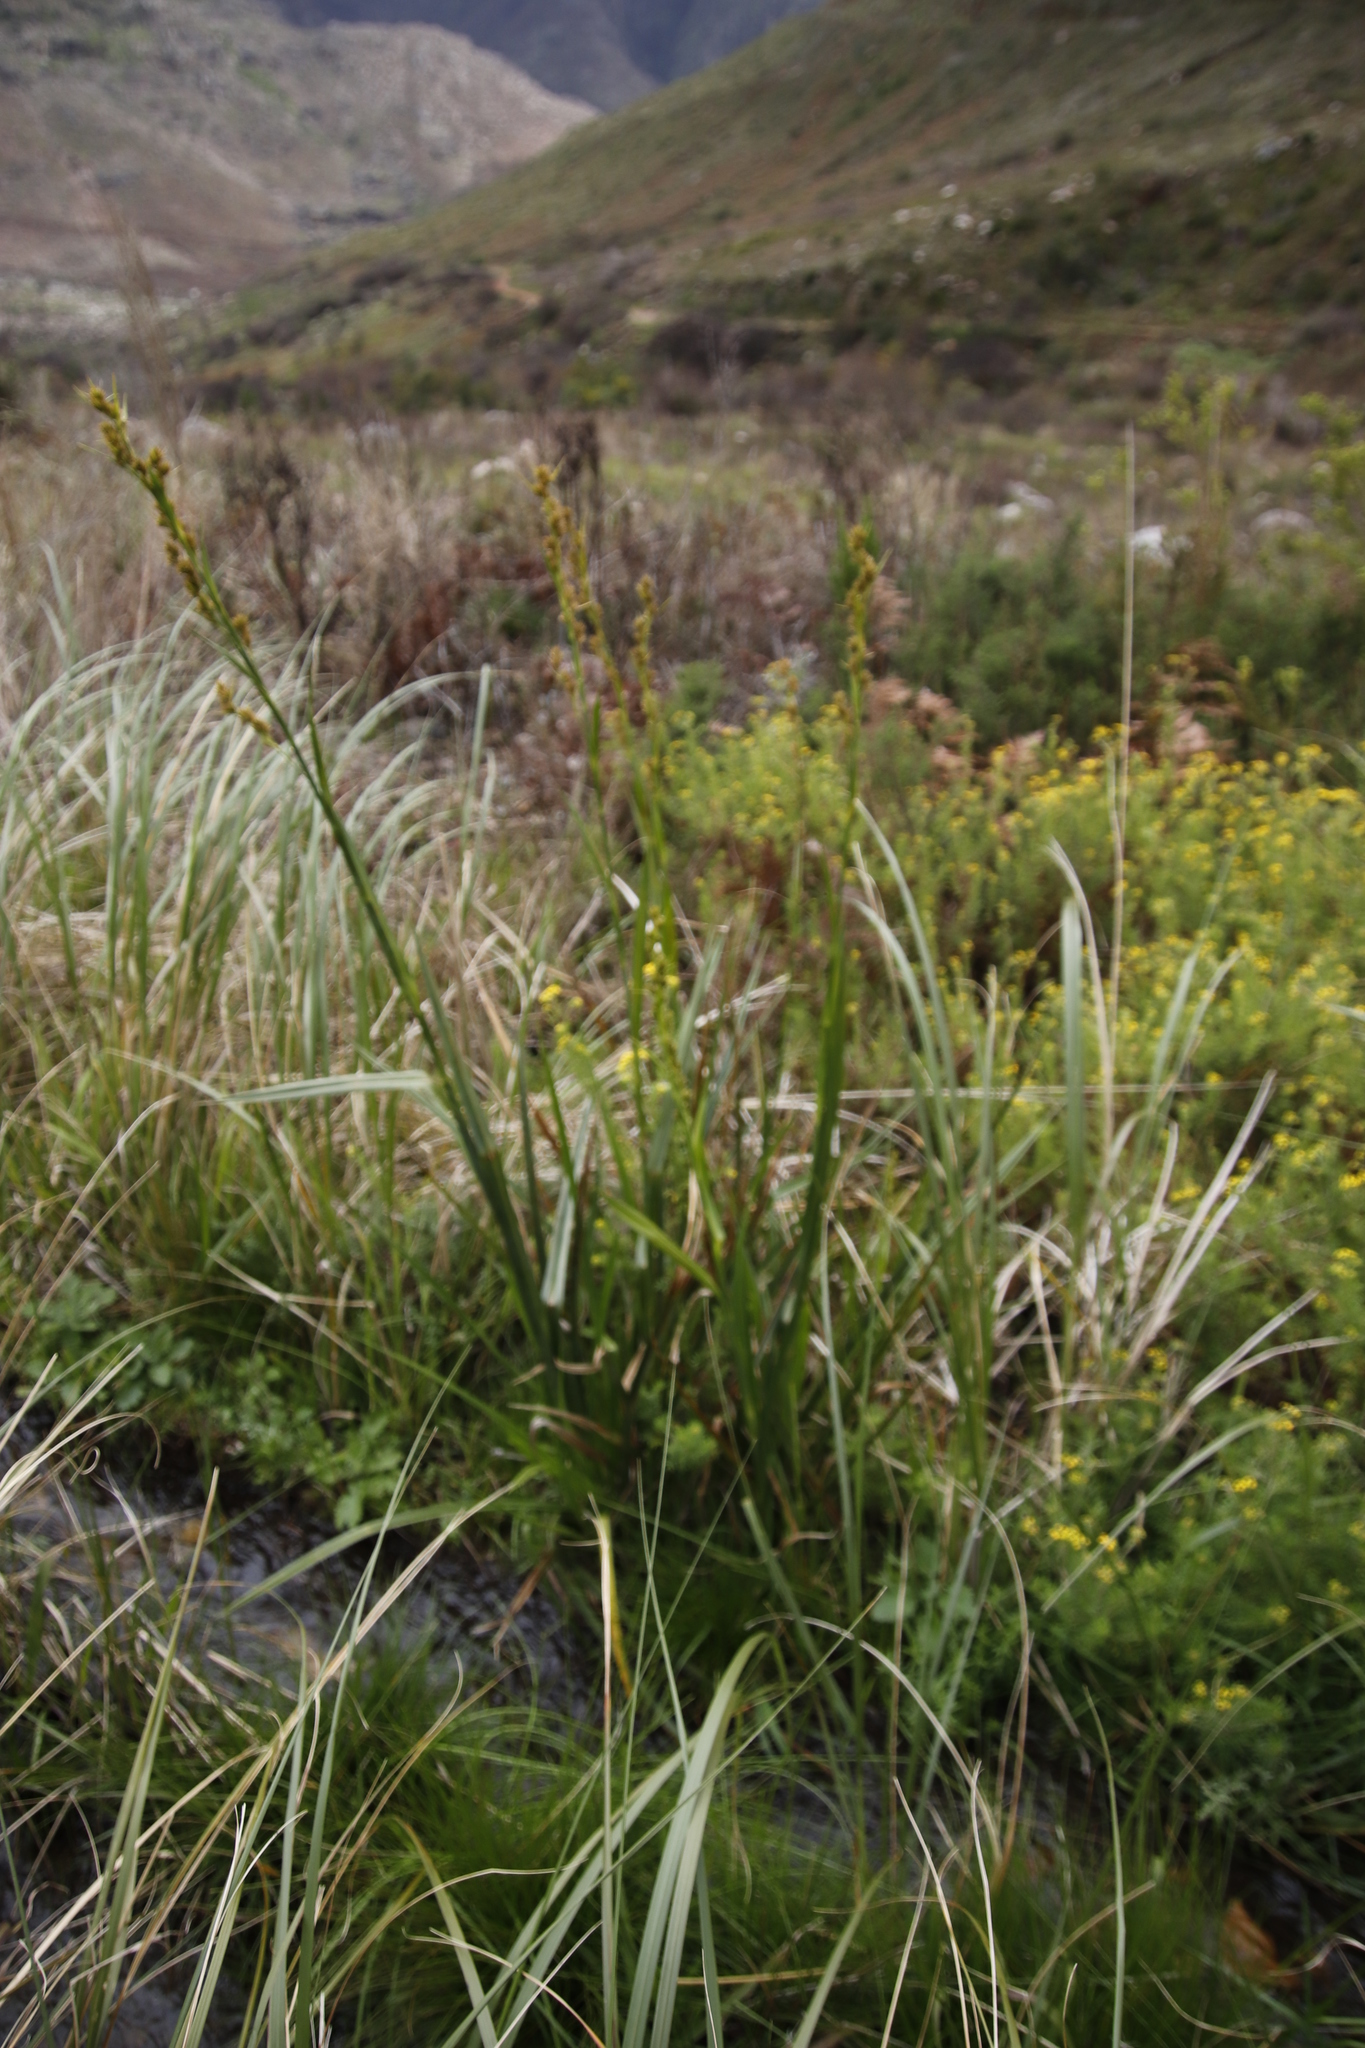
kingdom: Plantae
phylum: Tracheophyta
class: Liliopsida
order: Poales
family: Cyperaceae
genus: Carpha
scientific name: Carpha glomerata
